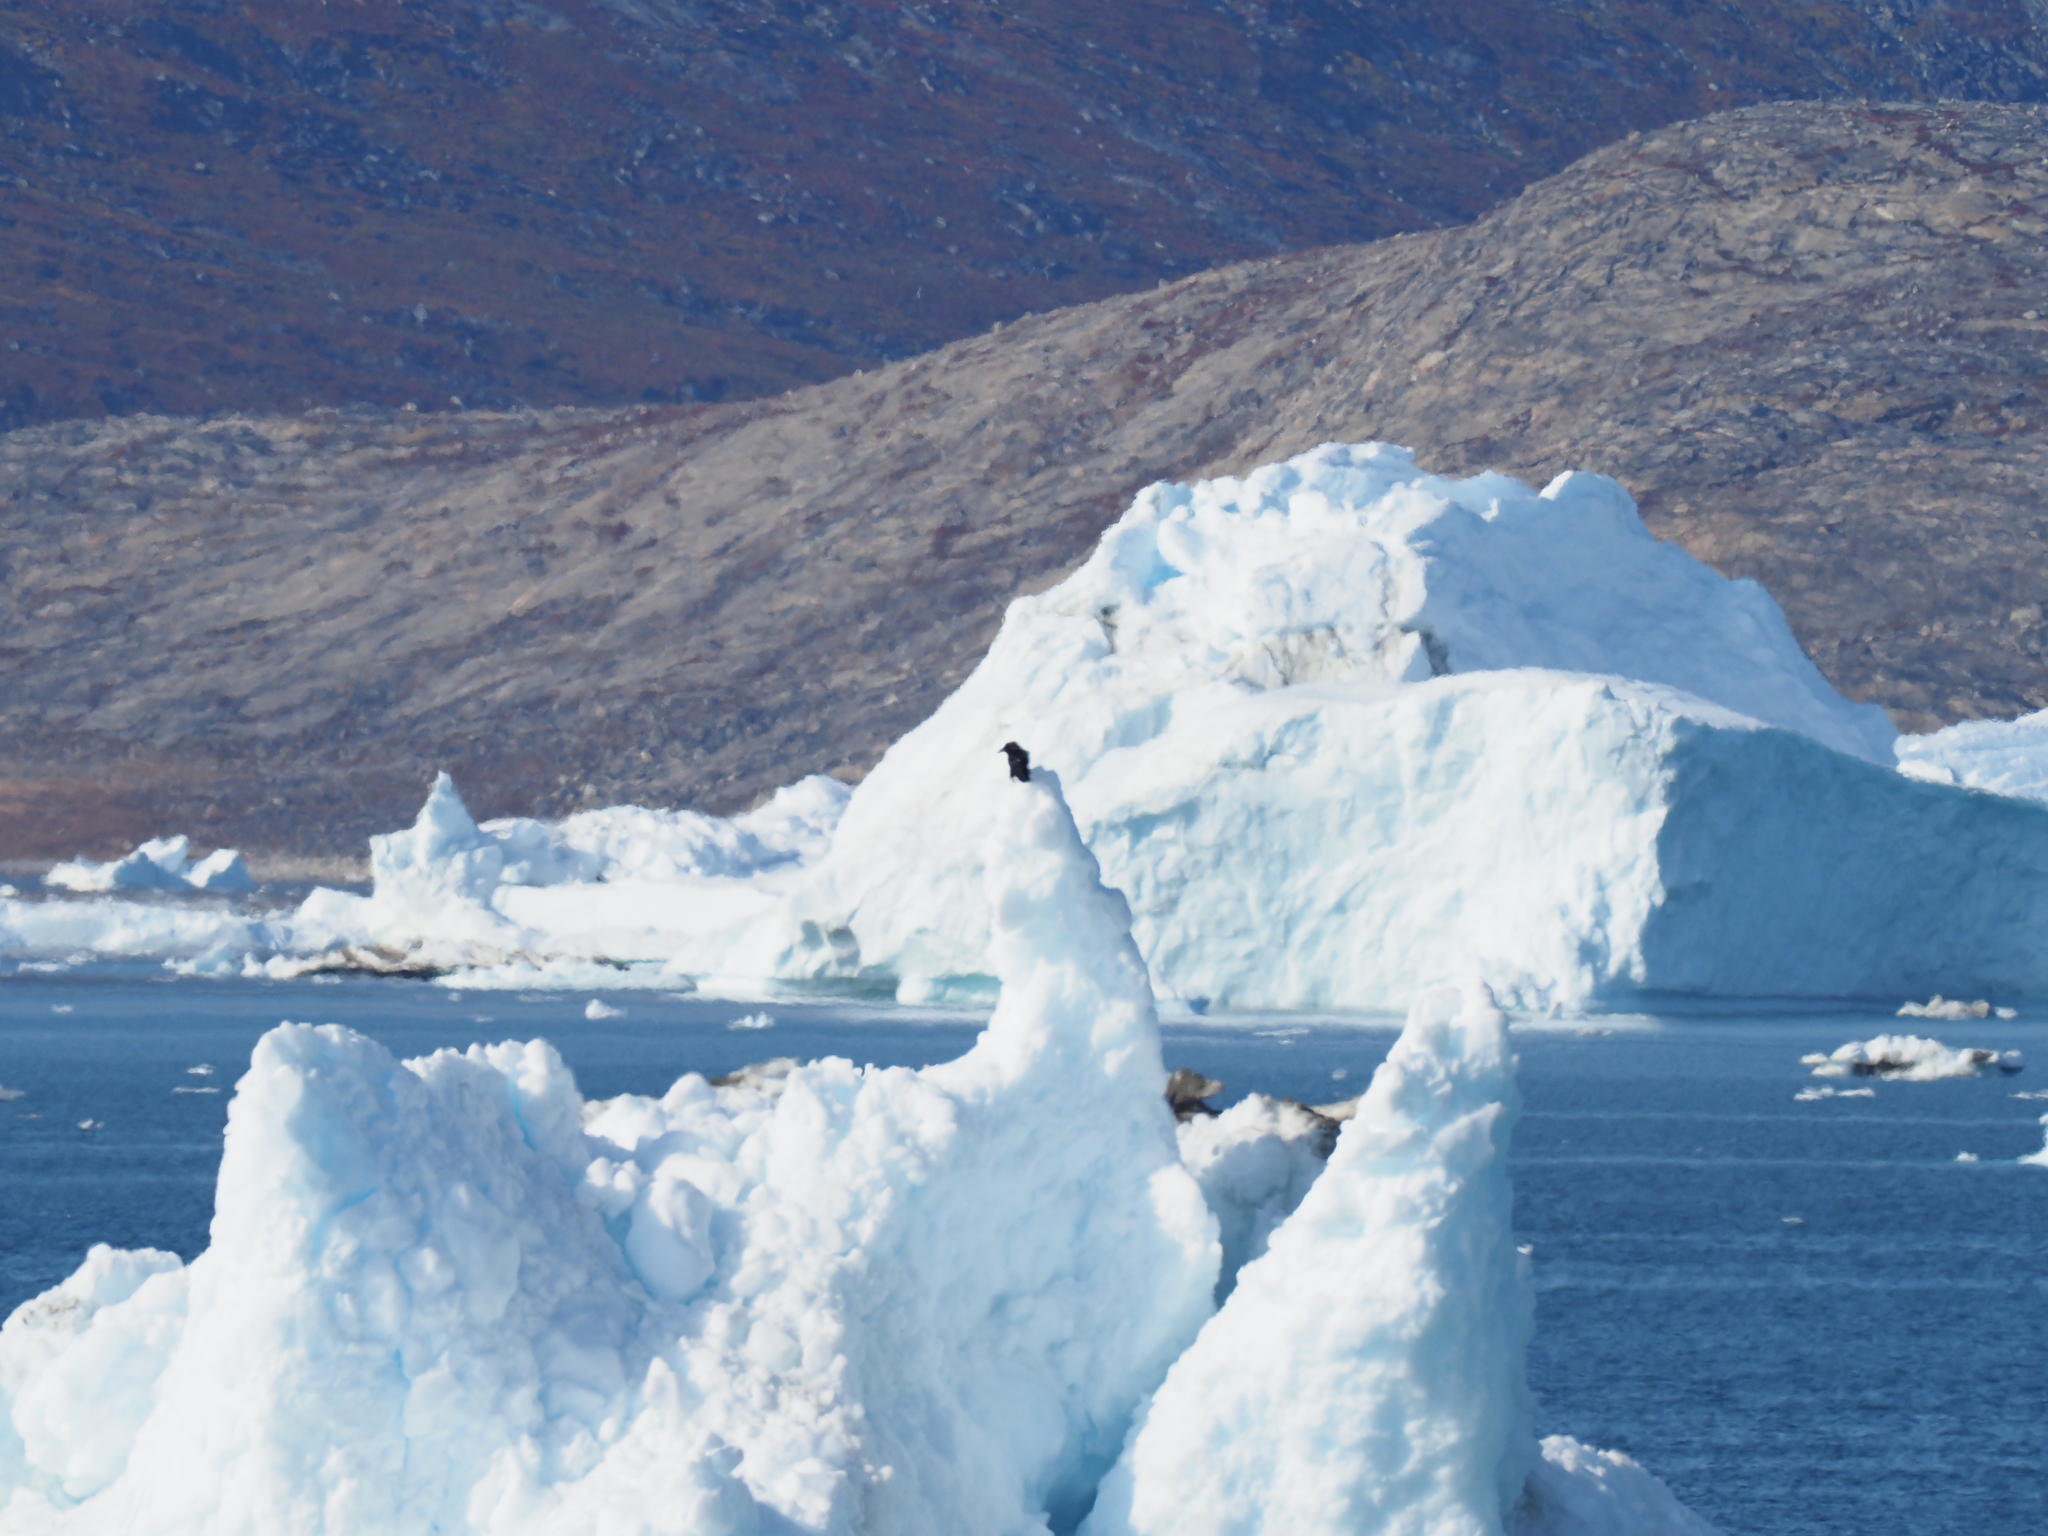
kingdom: Animalia
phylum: Chordata
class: Aves
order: Passeriformes
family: Corvidae
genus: Corvus
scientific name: Corvus corax
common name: Common raven
